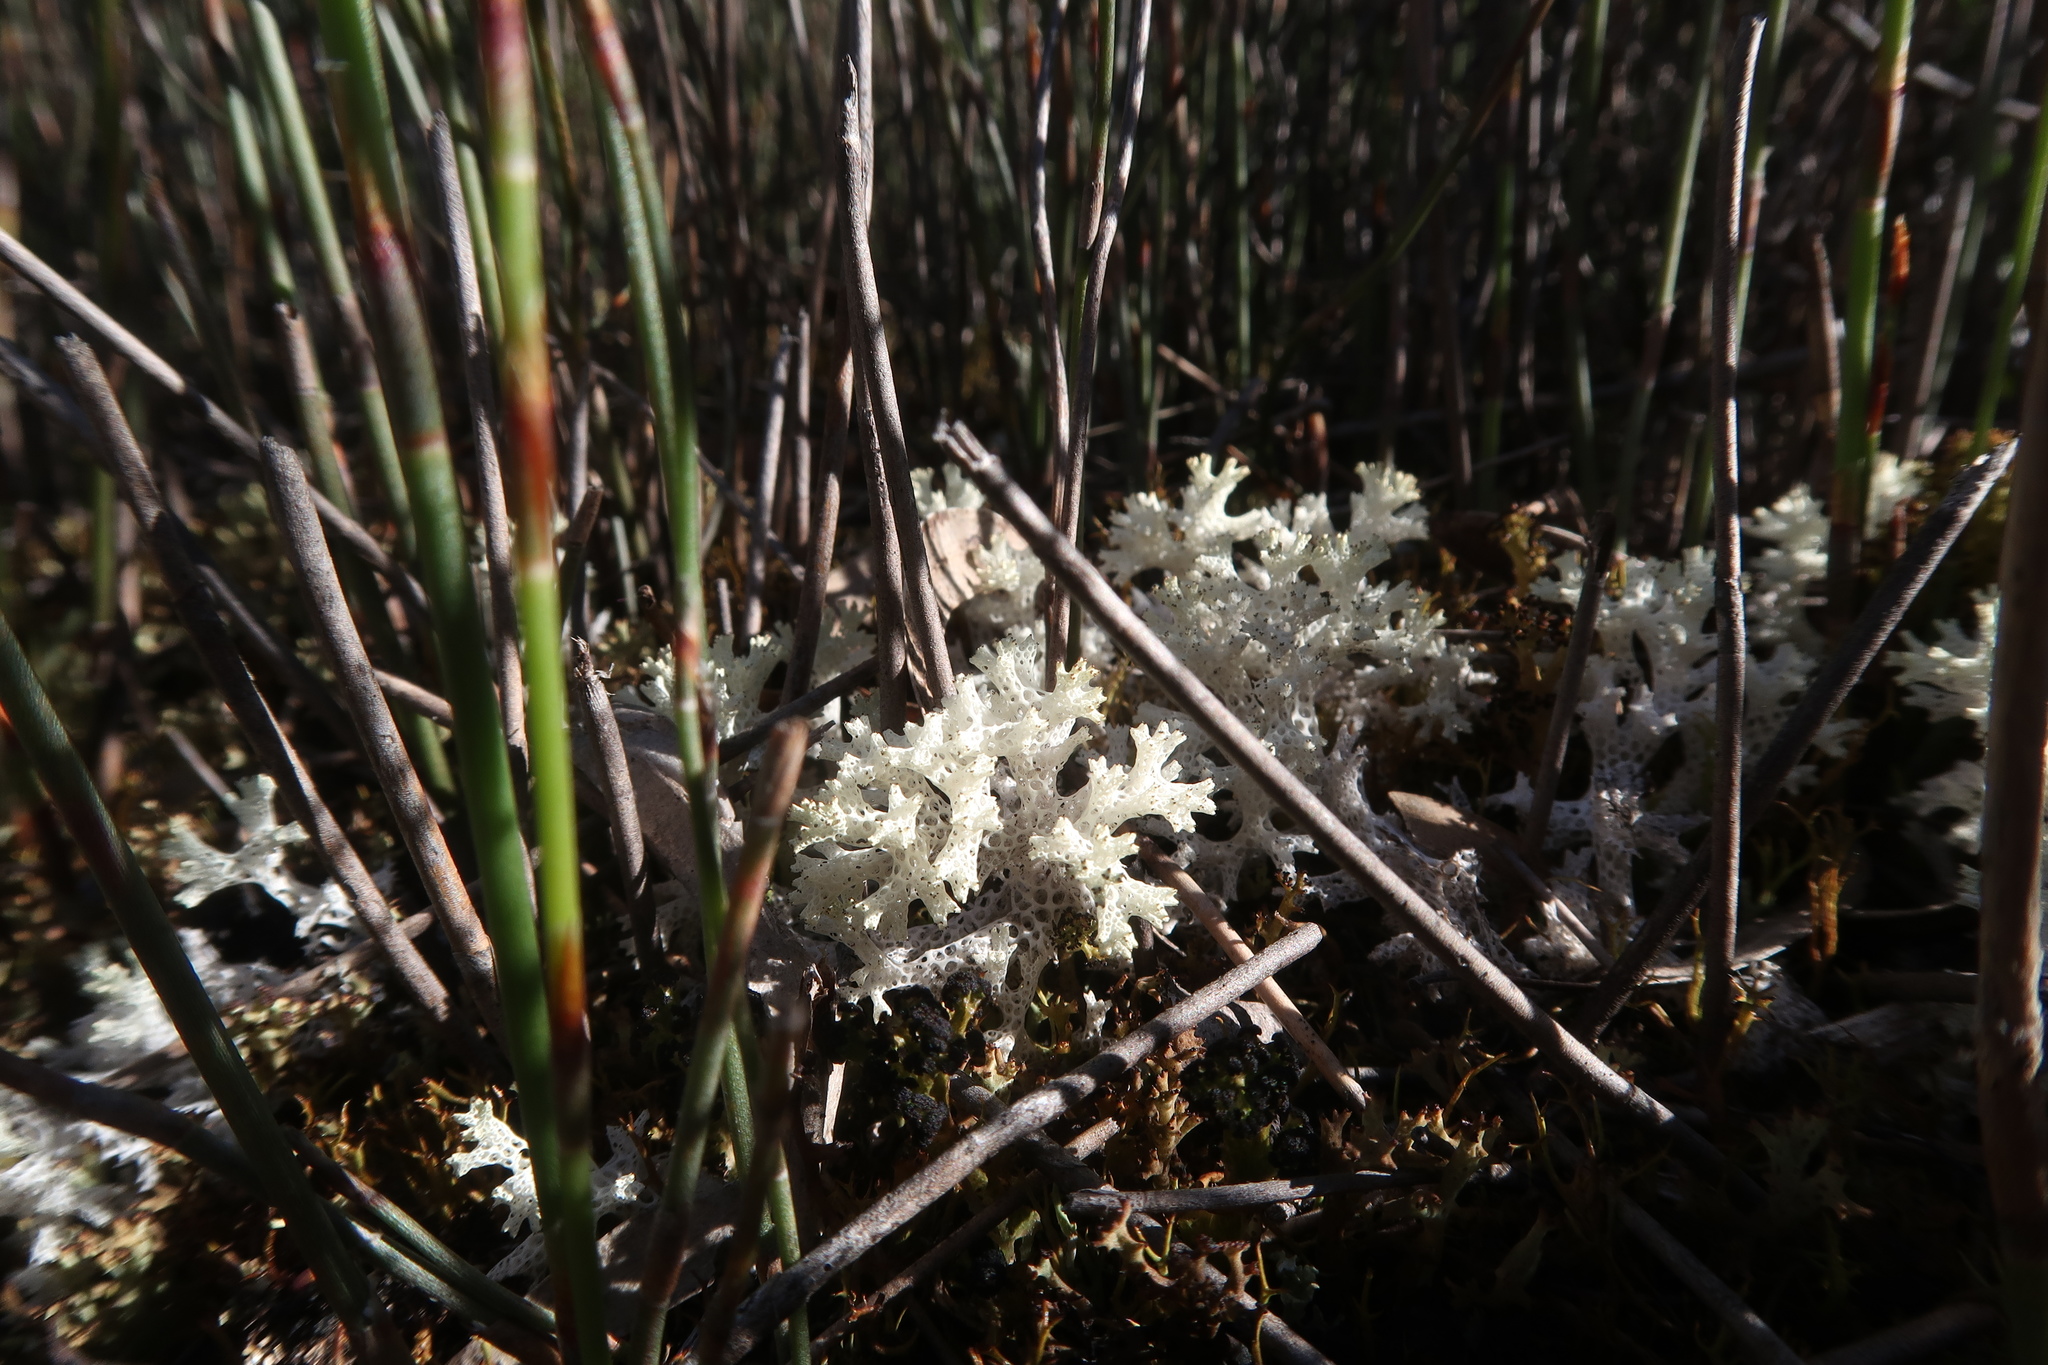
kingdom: Fungi
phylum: Ascomycota
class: Lecanoromycetes
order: Lecanorales
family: Cladoniaceae
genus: Pulchrocladia
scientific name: Pulchrocladia retipora
